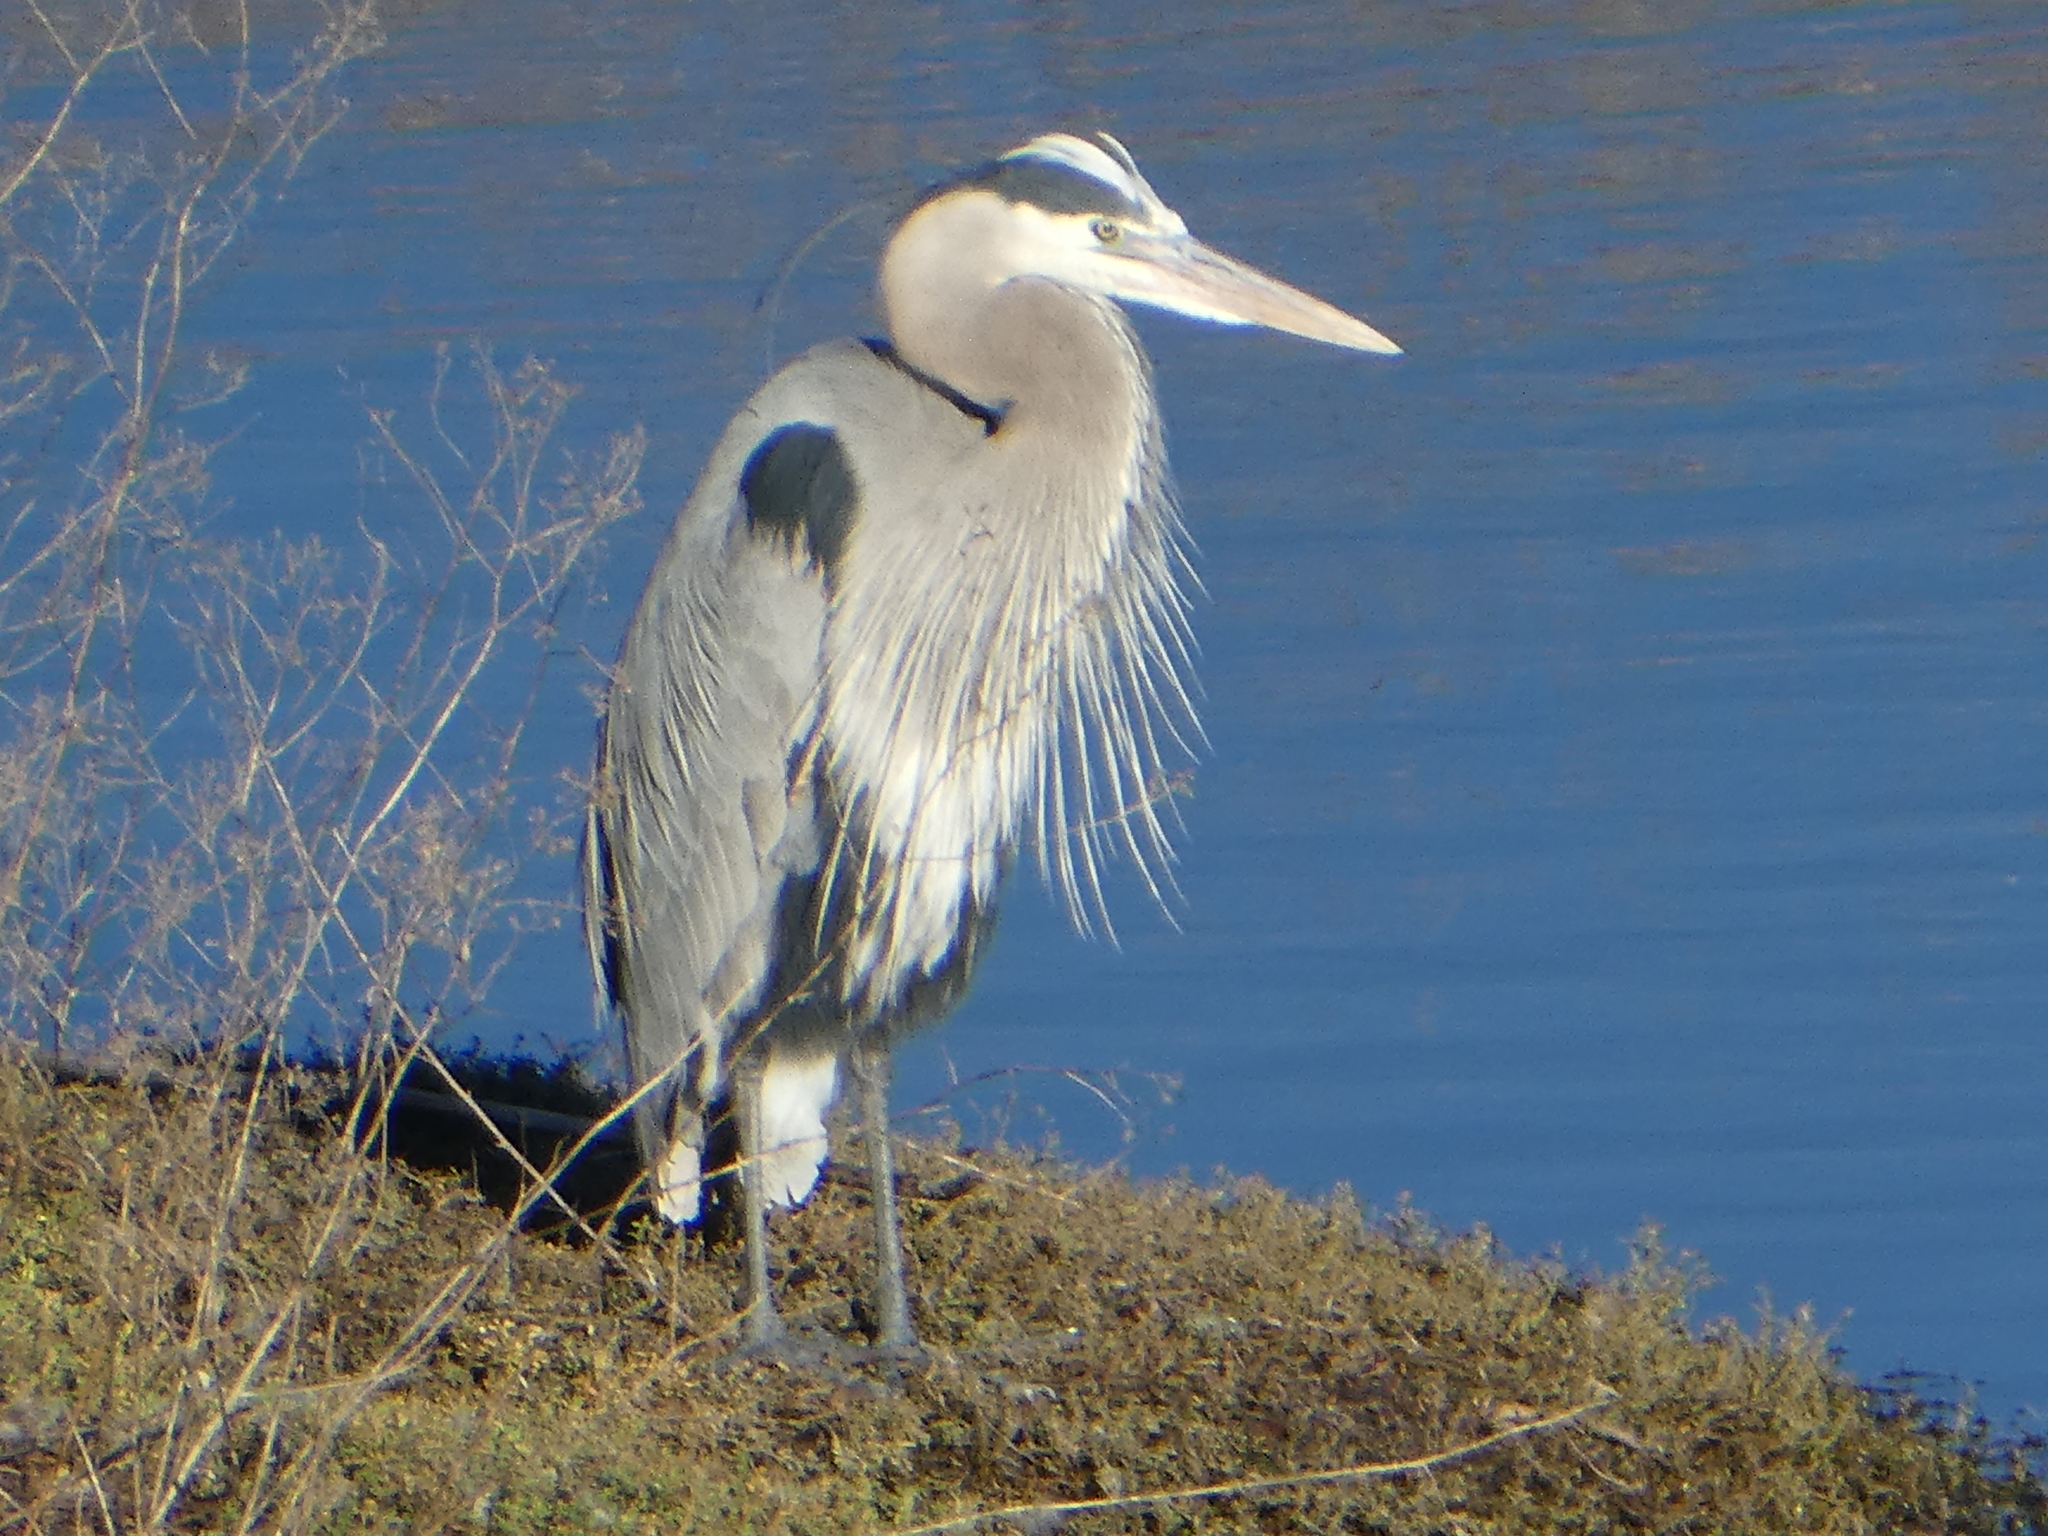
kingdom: Animalia
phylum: Chordata
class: Aves
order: Pelecaniformes
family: Ardeidae
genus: Ardea
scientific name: Ardea herodias
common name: Great blue heron
